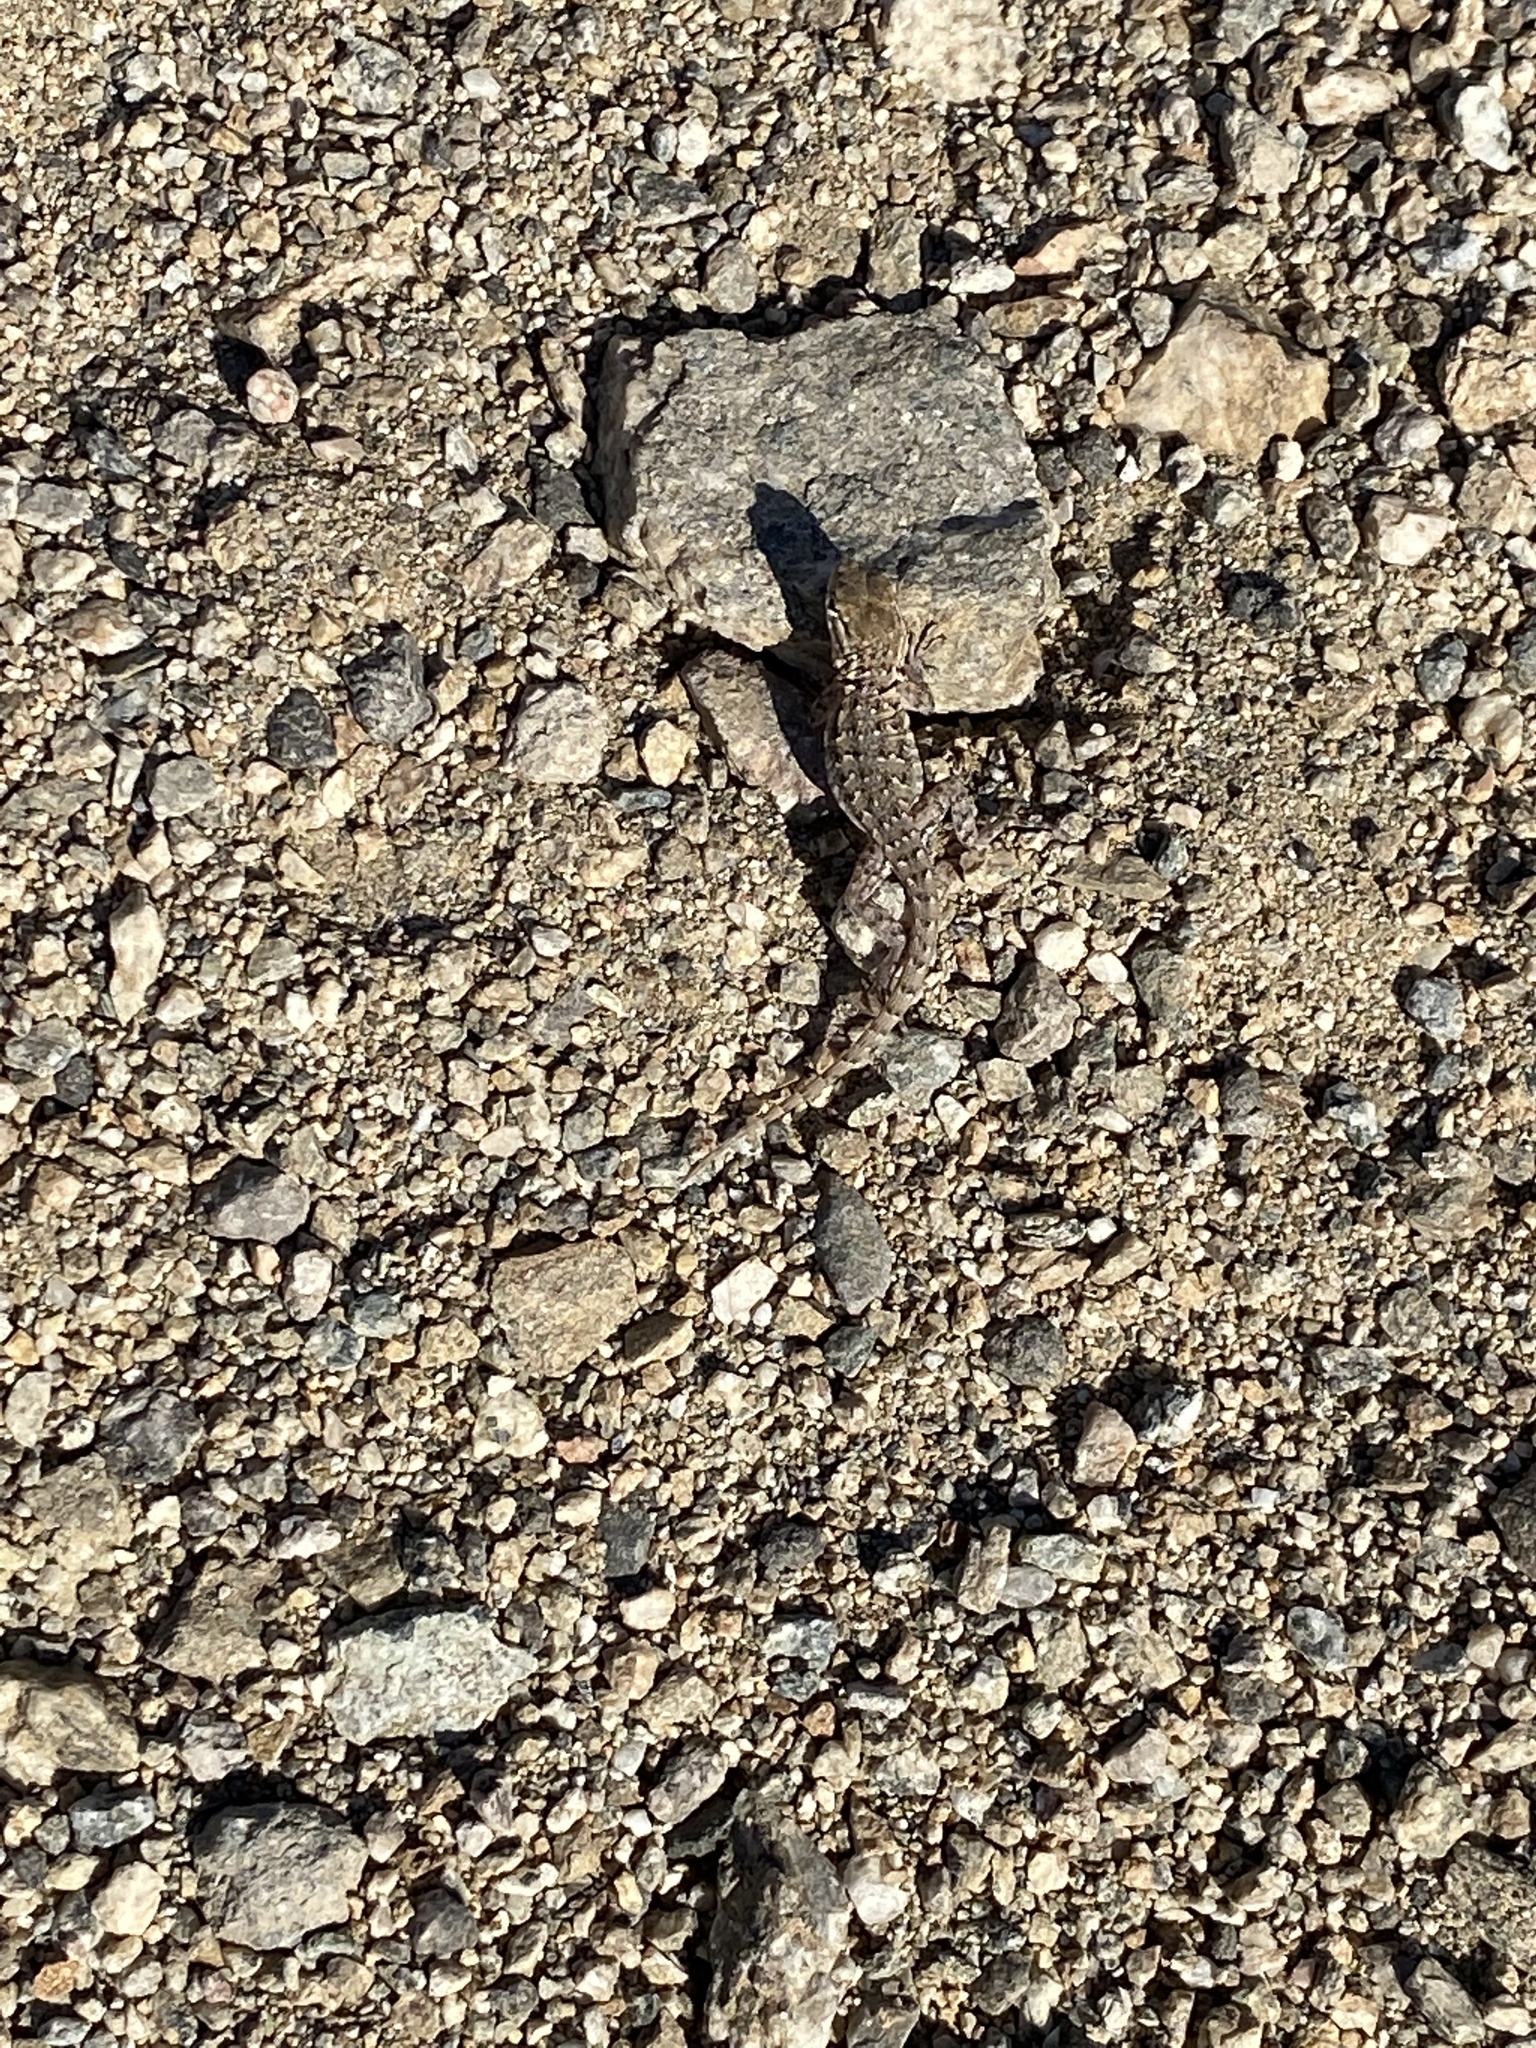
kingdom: Animalia
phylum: Chordata
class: Squamata
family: Phrynosomatidae
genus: Uta
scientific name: Uta stansburiana
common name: Side-blotched lizard
